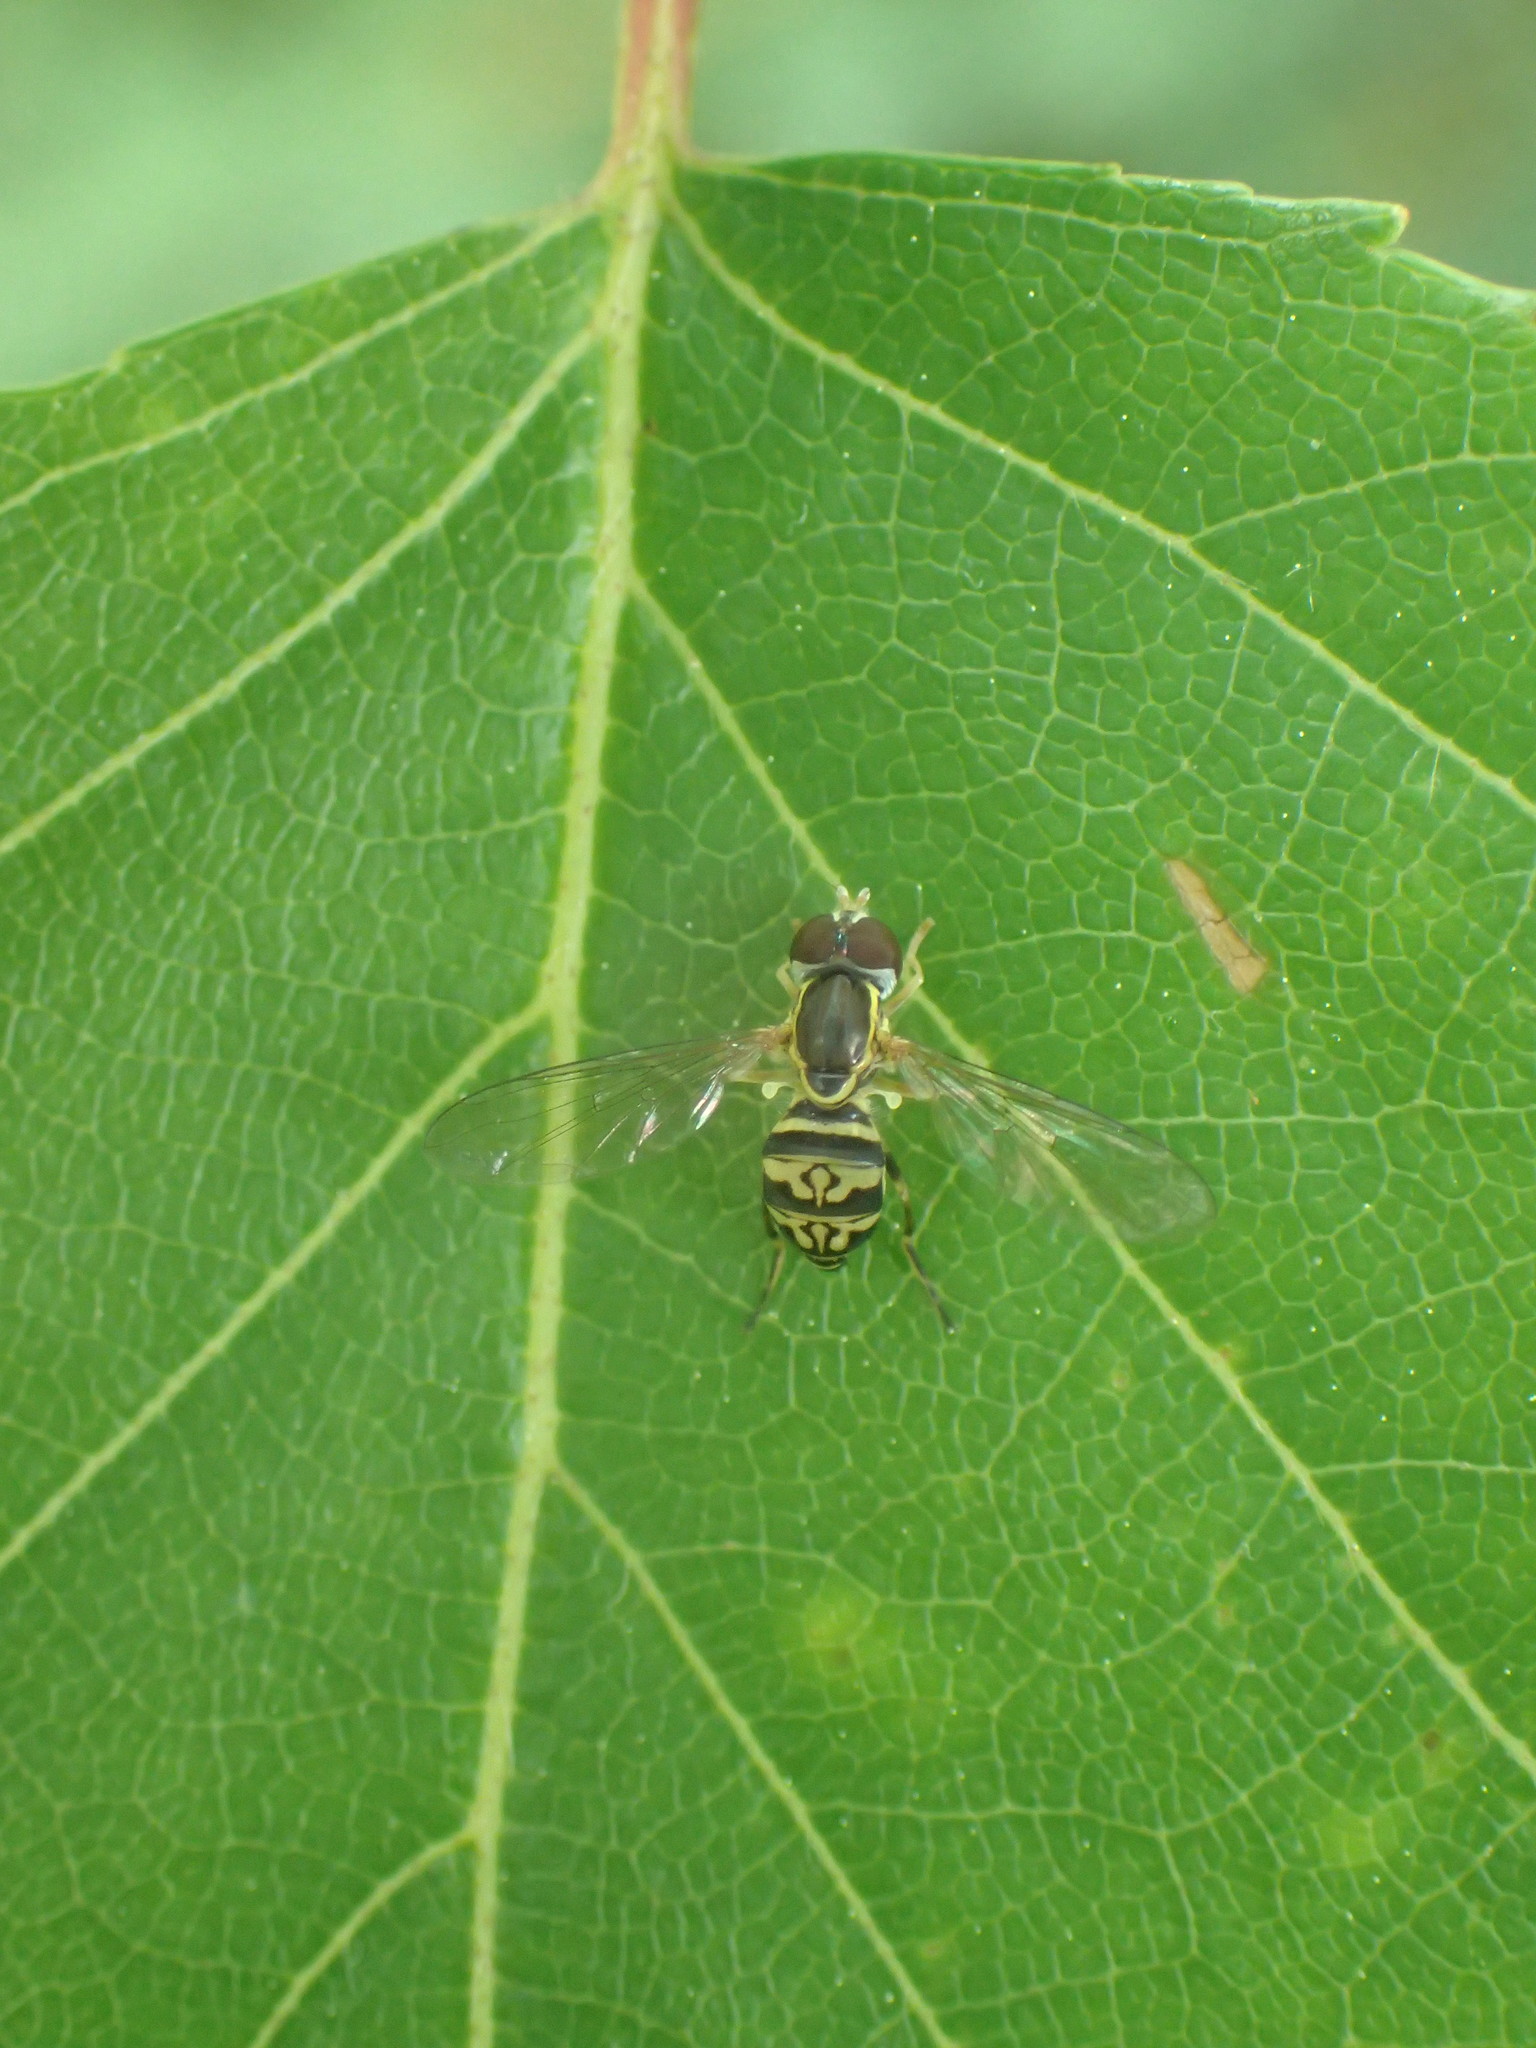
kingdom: Animalia
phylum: Arthropoda
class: Insecta
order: Diptera
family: Syrphidae
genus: Toxomerus
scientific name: Toxomerus geminatus
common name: Eastern calligrapher
